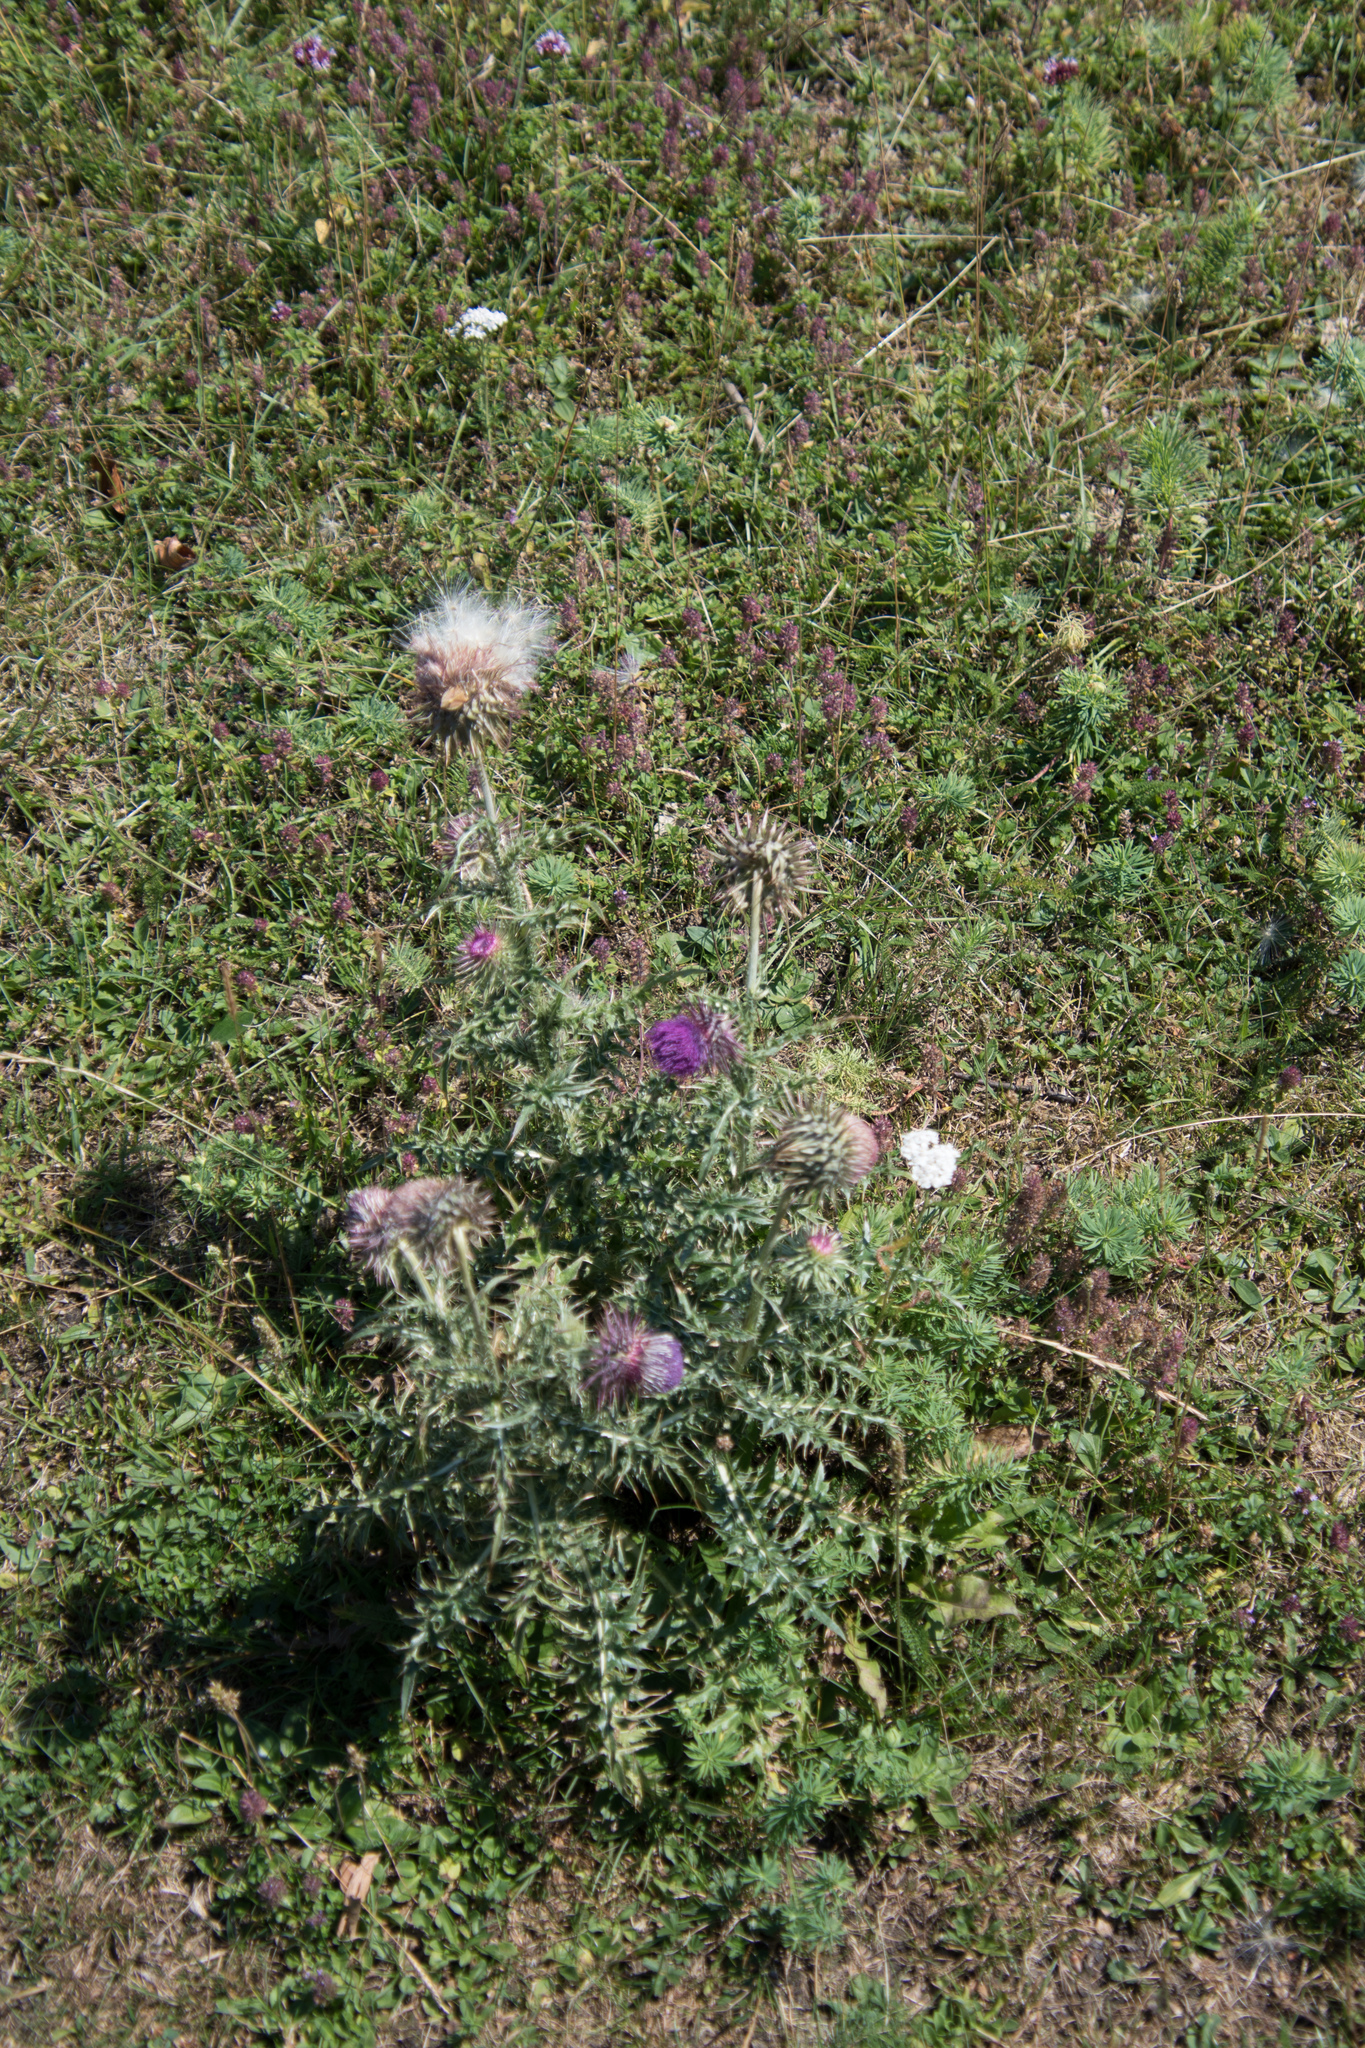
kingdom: Plantae
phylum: Tracheophyta
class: Magnoliopsida
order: Asterales
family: Asteraceae
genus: Carduus
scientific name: Carduus nutans
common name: Musk thistle
